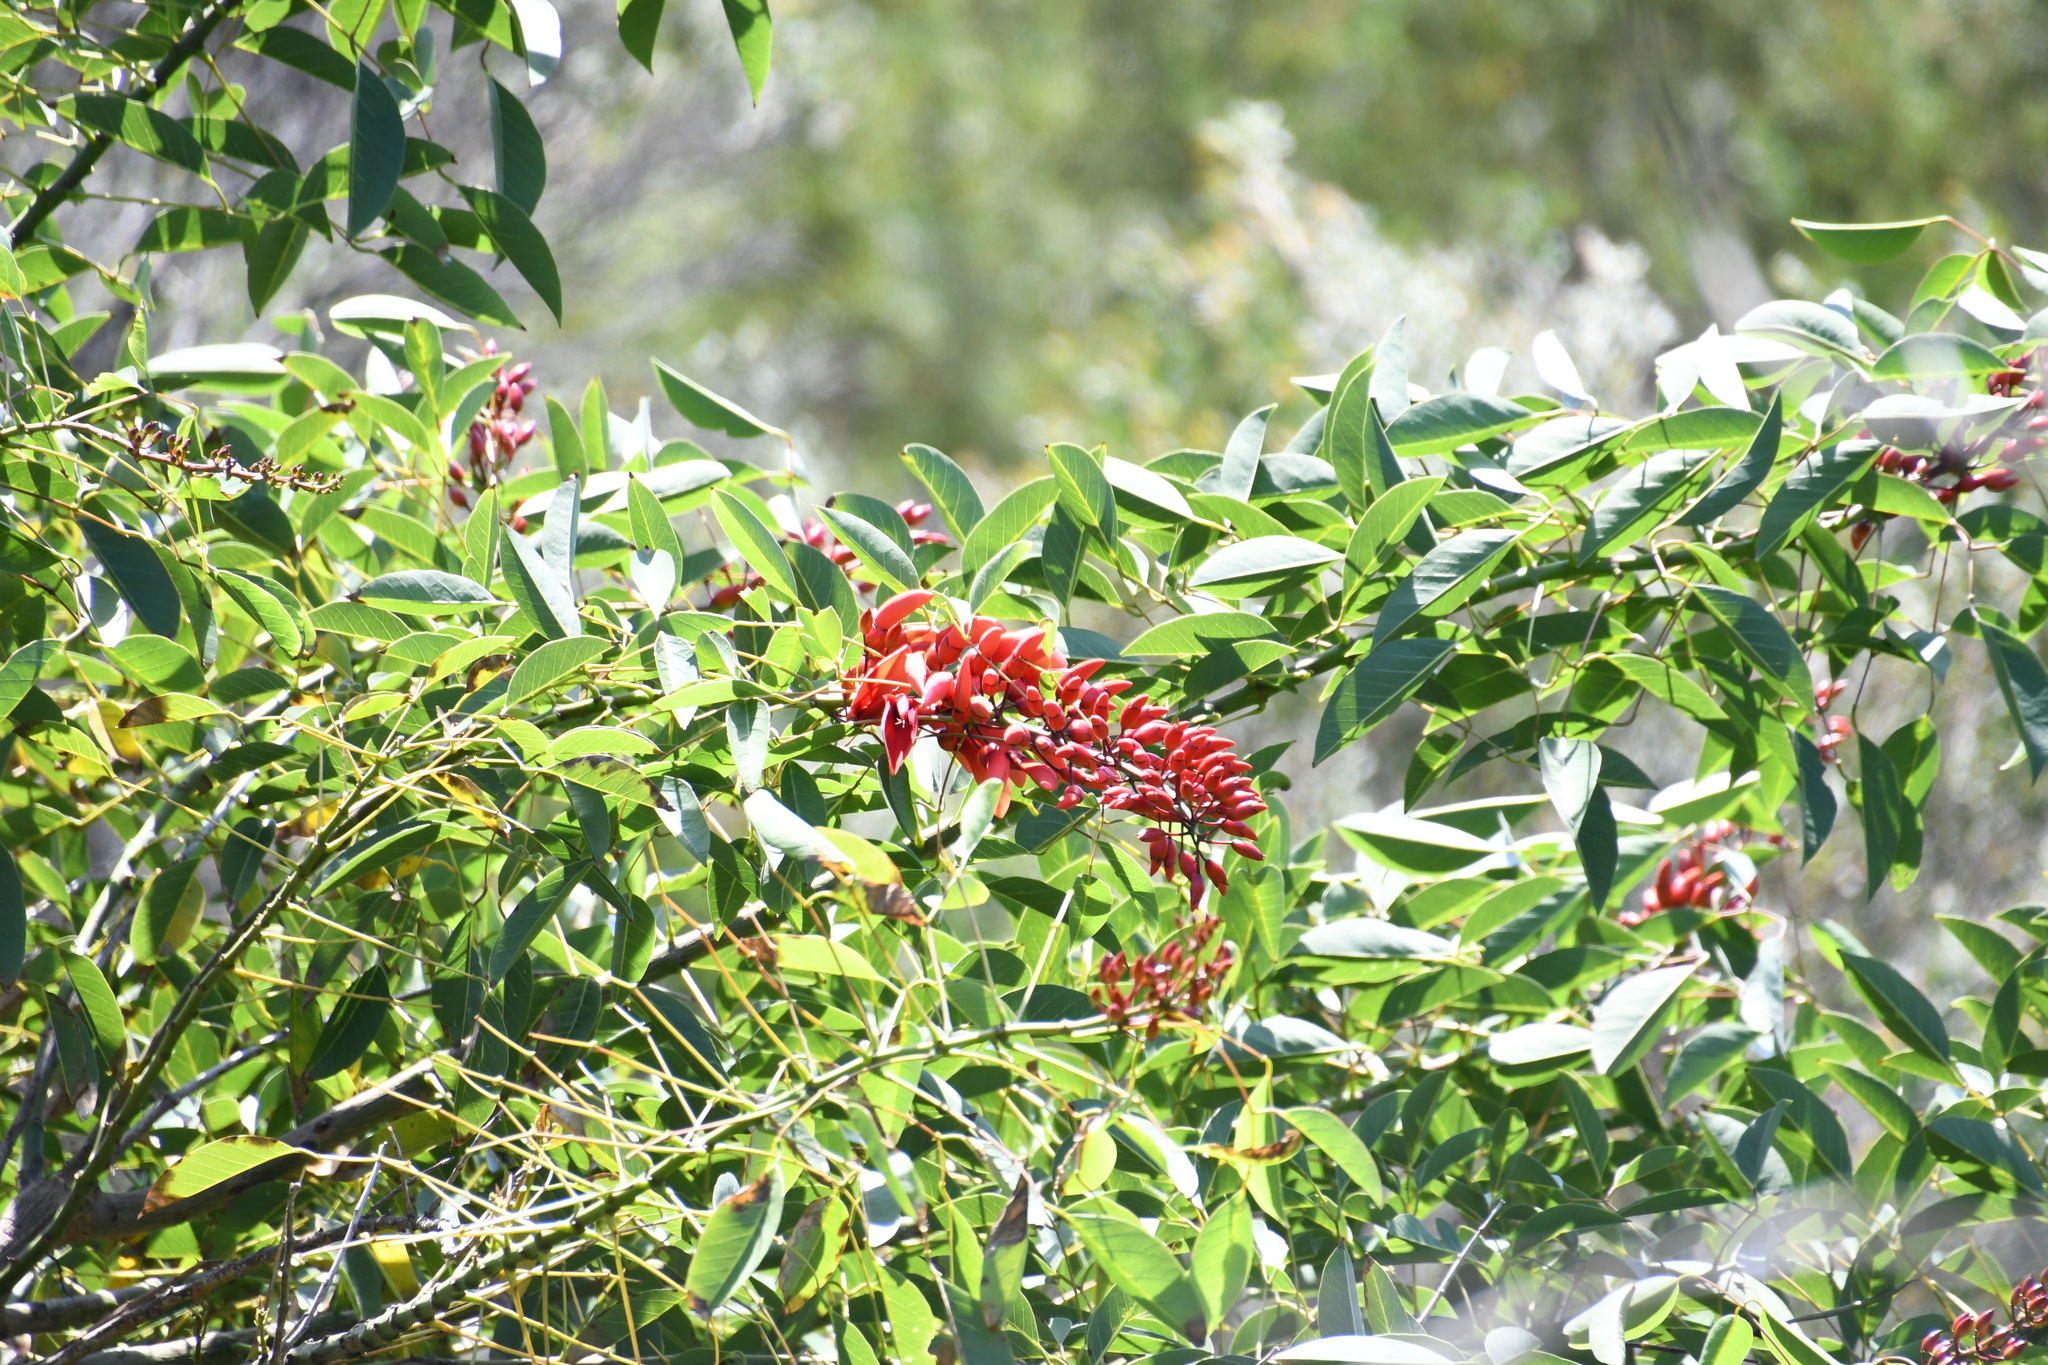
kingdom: Plantae
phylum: Tracheophyta
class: Magnoliopsida
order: Fabales
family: Fabaceae
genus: Erythrina
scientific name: Erythrina crista-galli
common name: Cockspur coral tree
